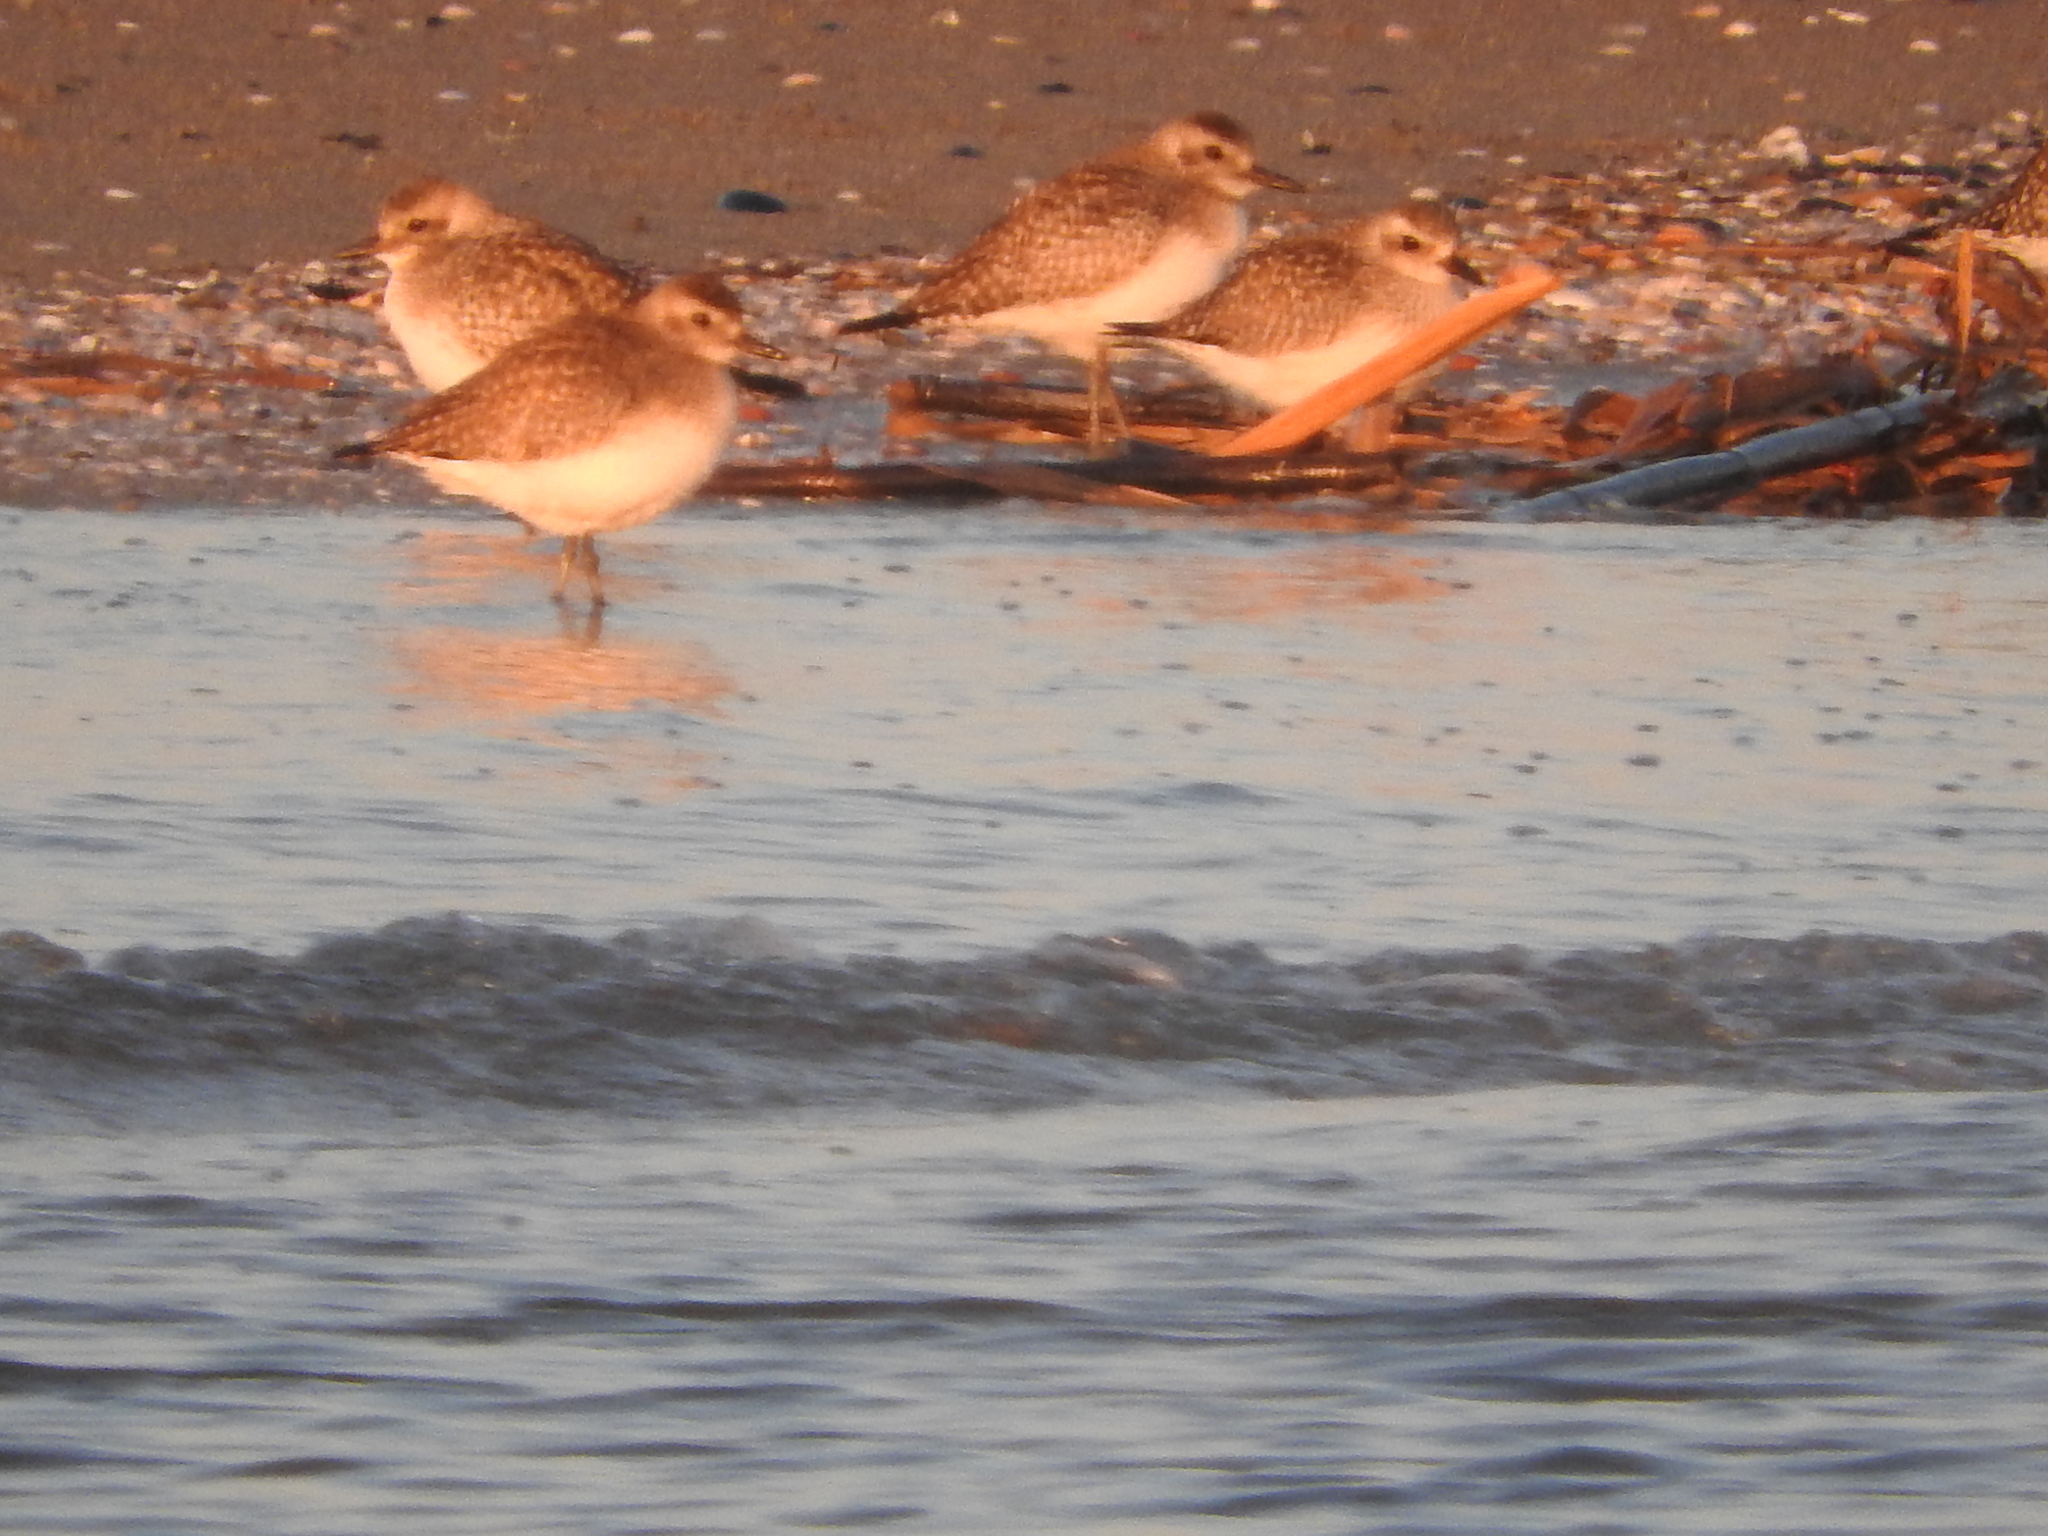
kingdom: Animalia
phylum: Chordata
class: Aves
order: Charadriiformes
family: Charadriidae
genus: Pluvialis
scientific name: Pluvialis squatarola
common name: Grey plover
